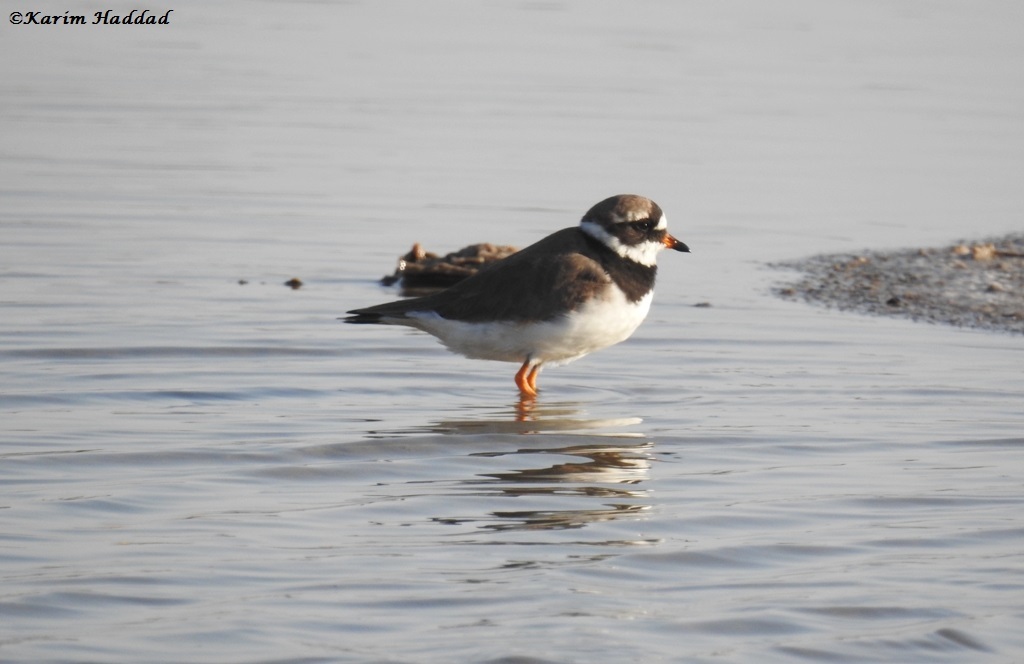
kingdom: Animalia
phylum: Chordata
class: Aves
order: Charadriiformes
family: Charadriidae
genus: Charadrius
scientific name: Charadrius hiaticula
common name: Common ringed plover
